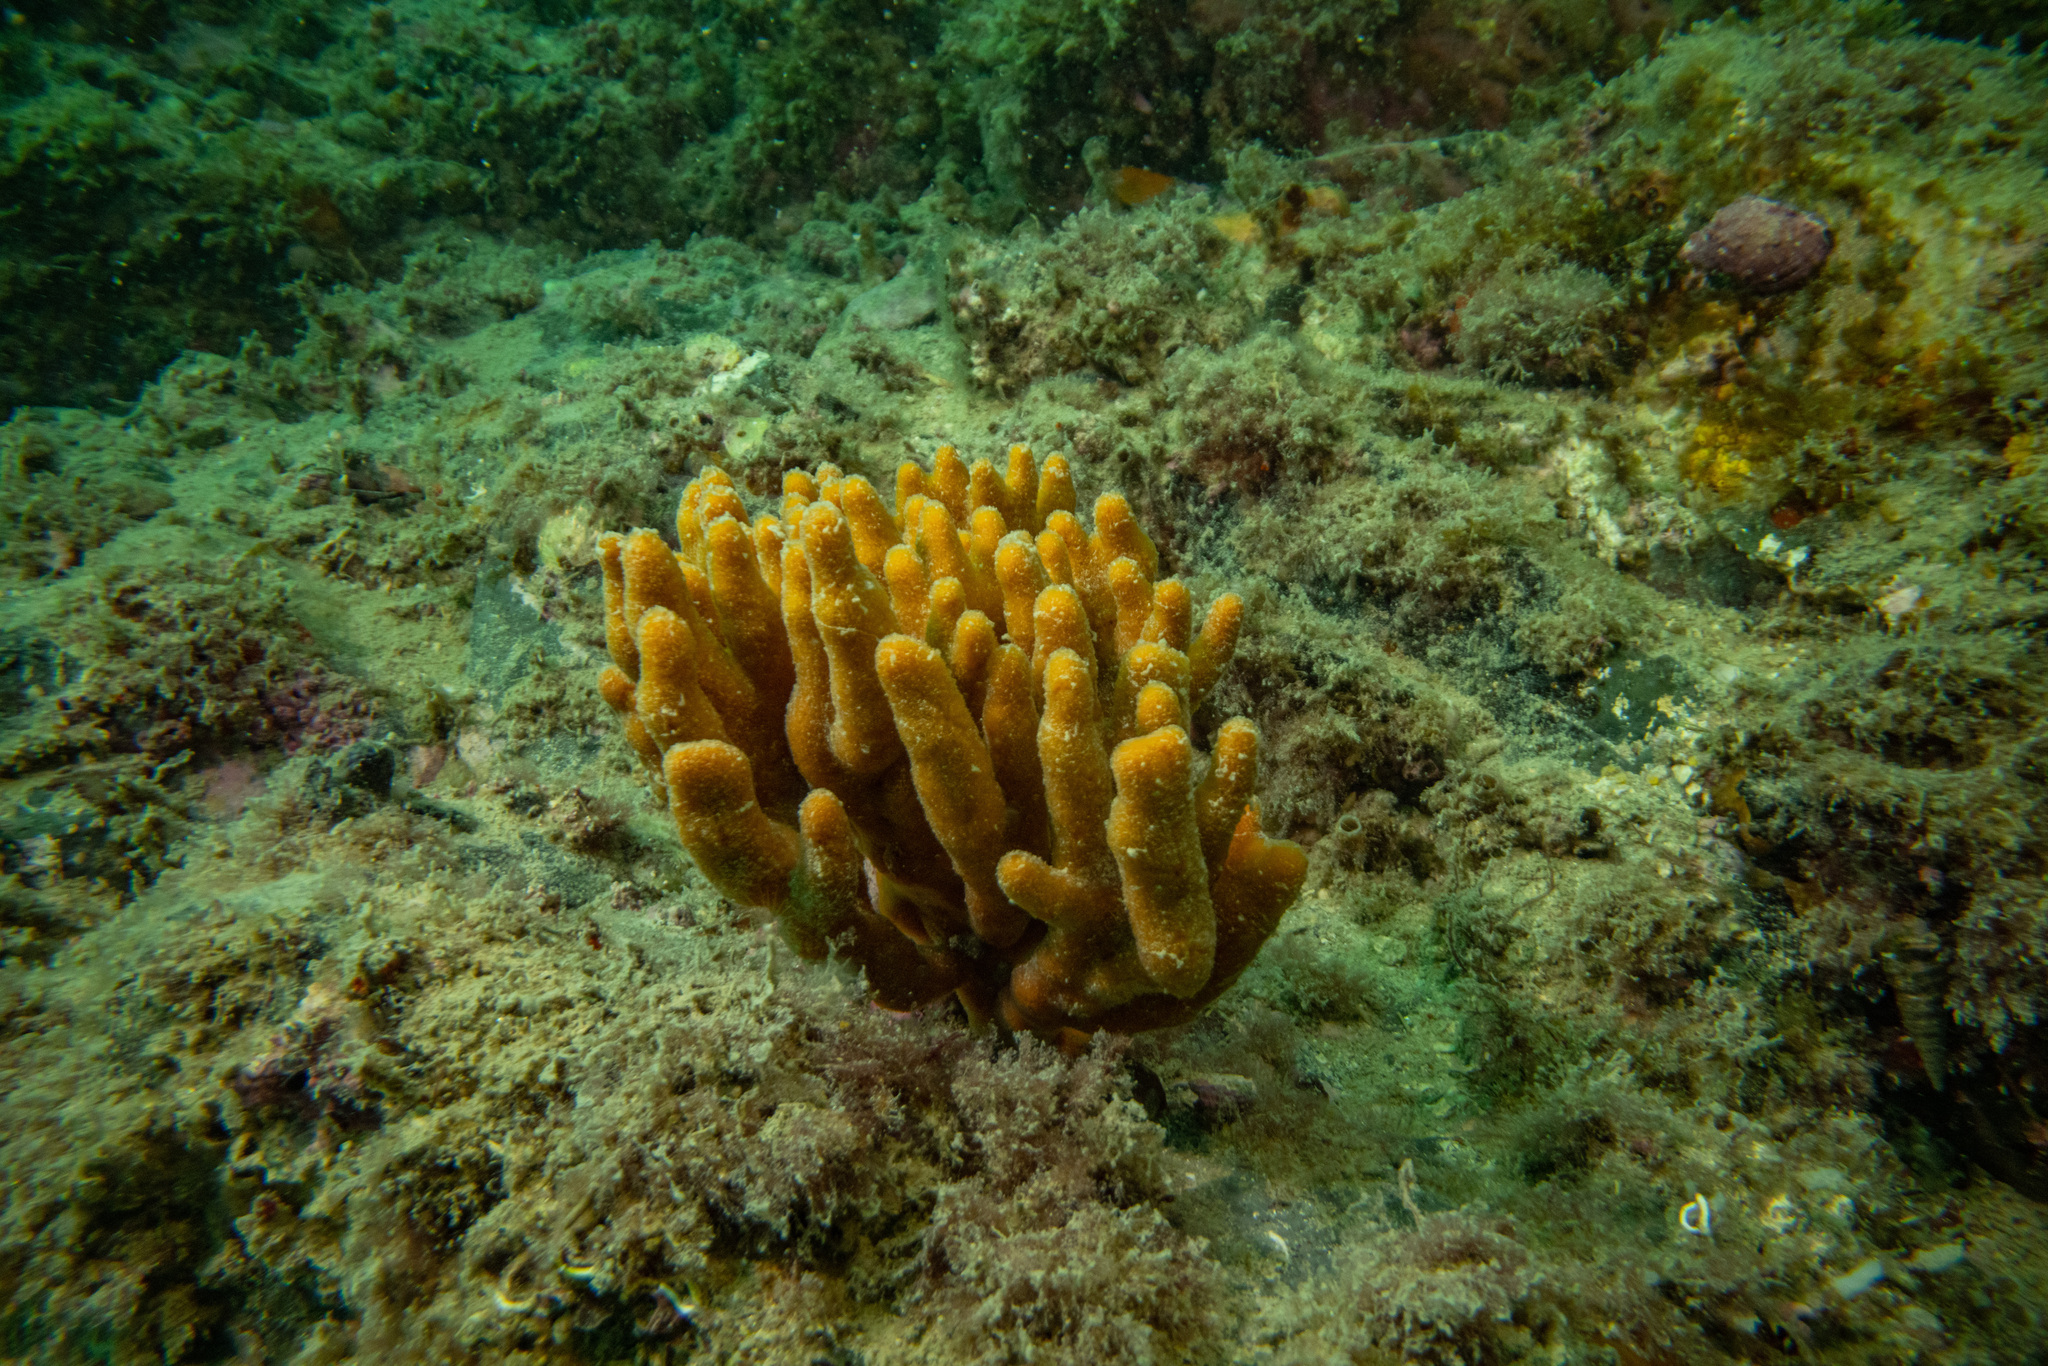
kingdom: Animalia
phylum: Porifera
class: Demospongiae
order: Axinellida
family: Raspailiidae
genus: Raspailia
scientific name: Raspailia topsenti
